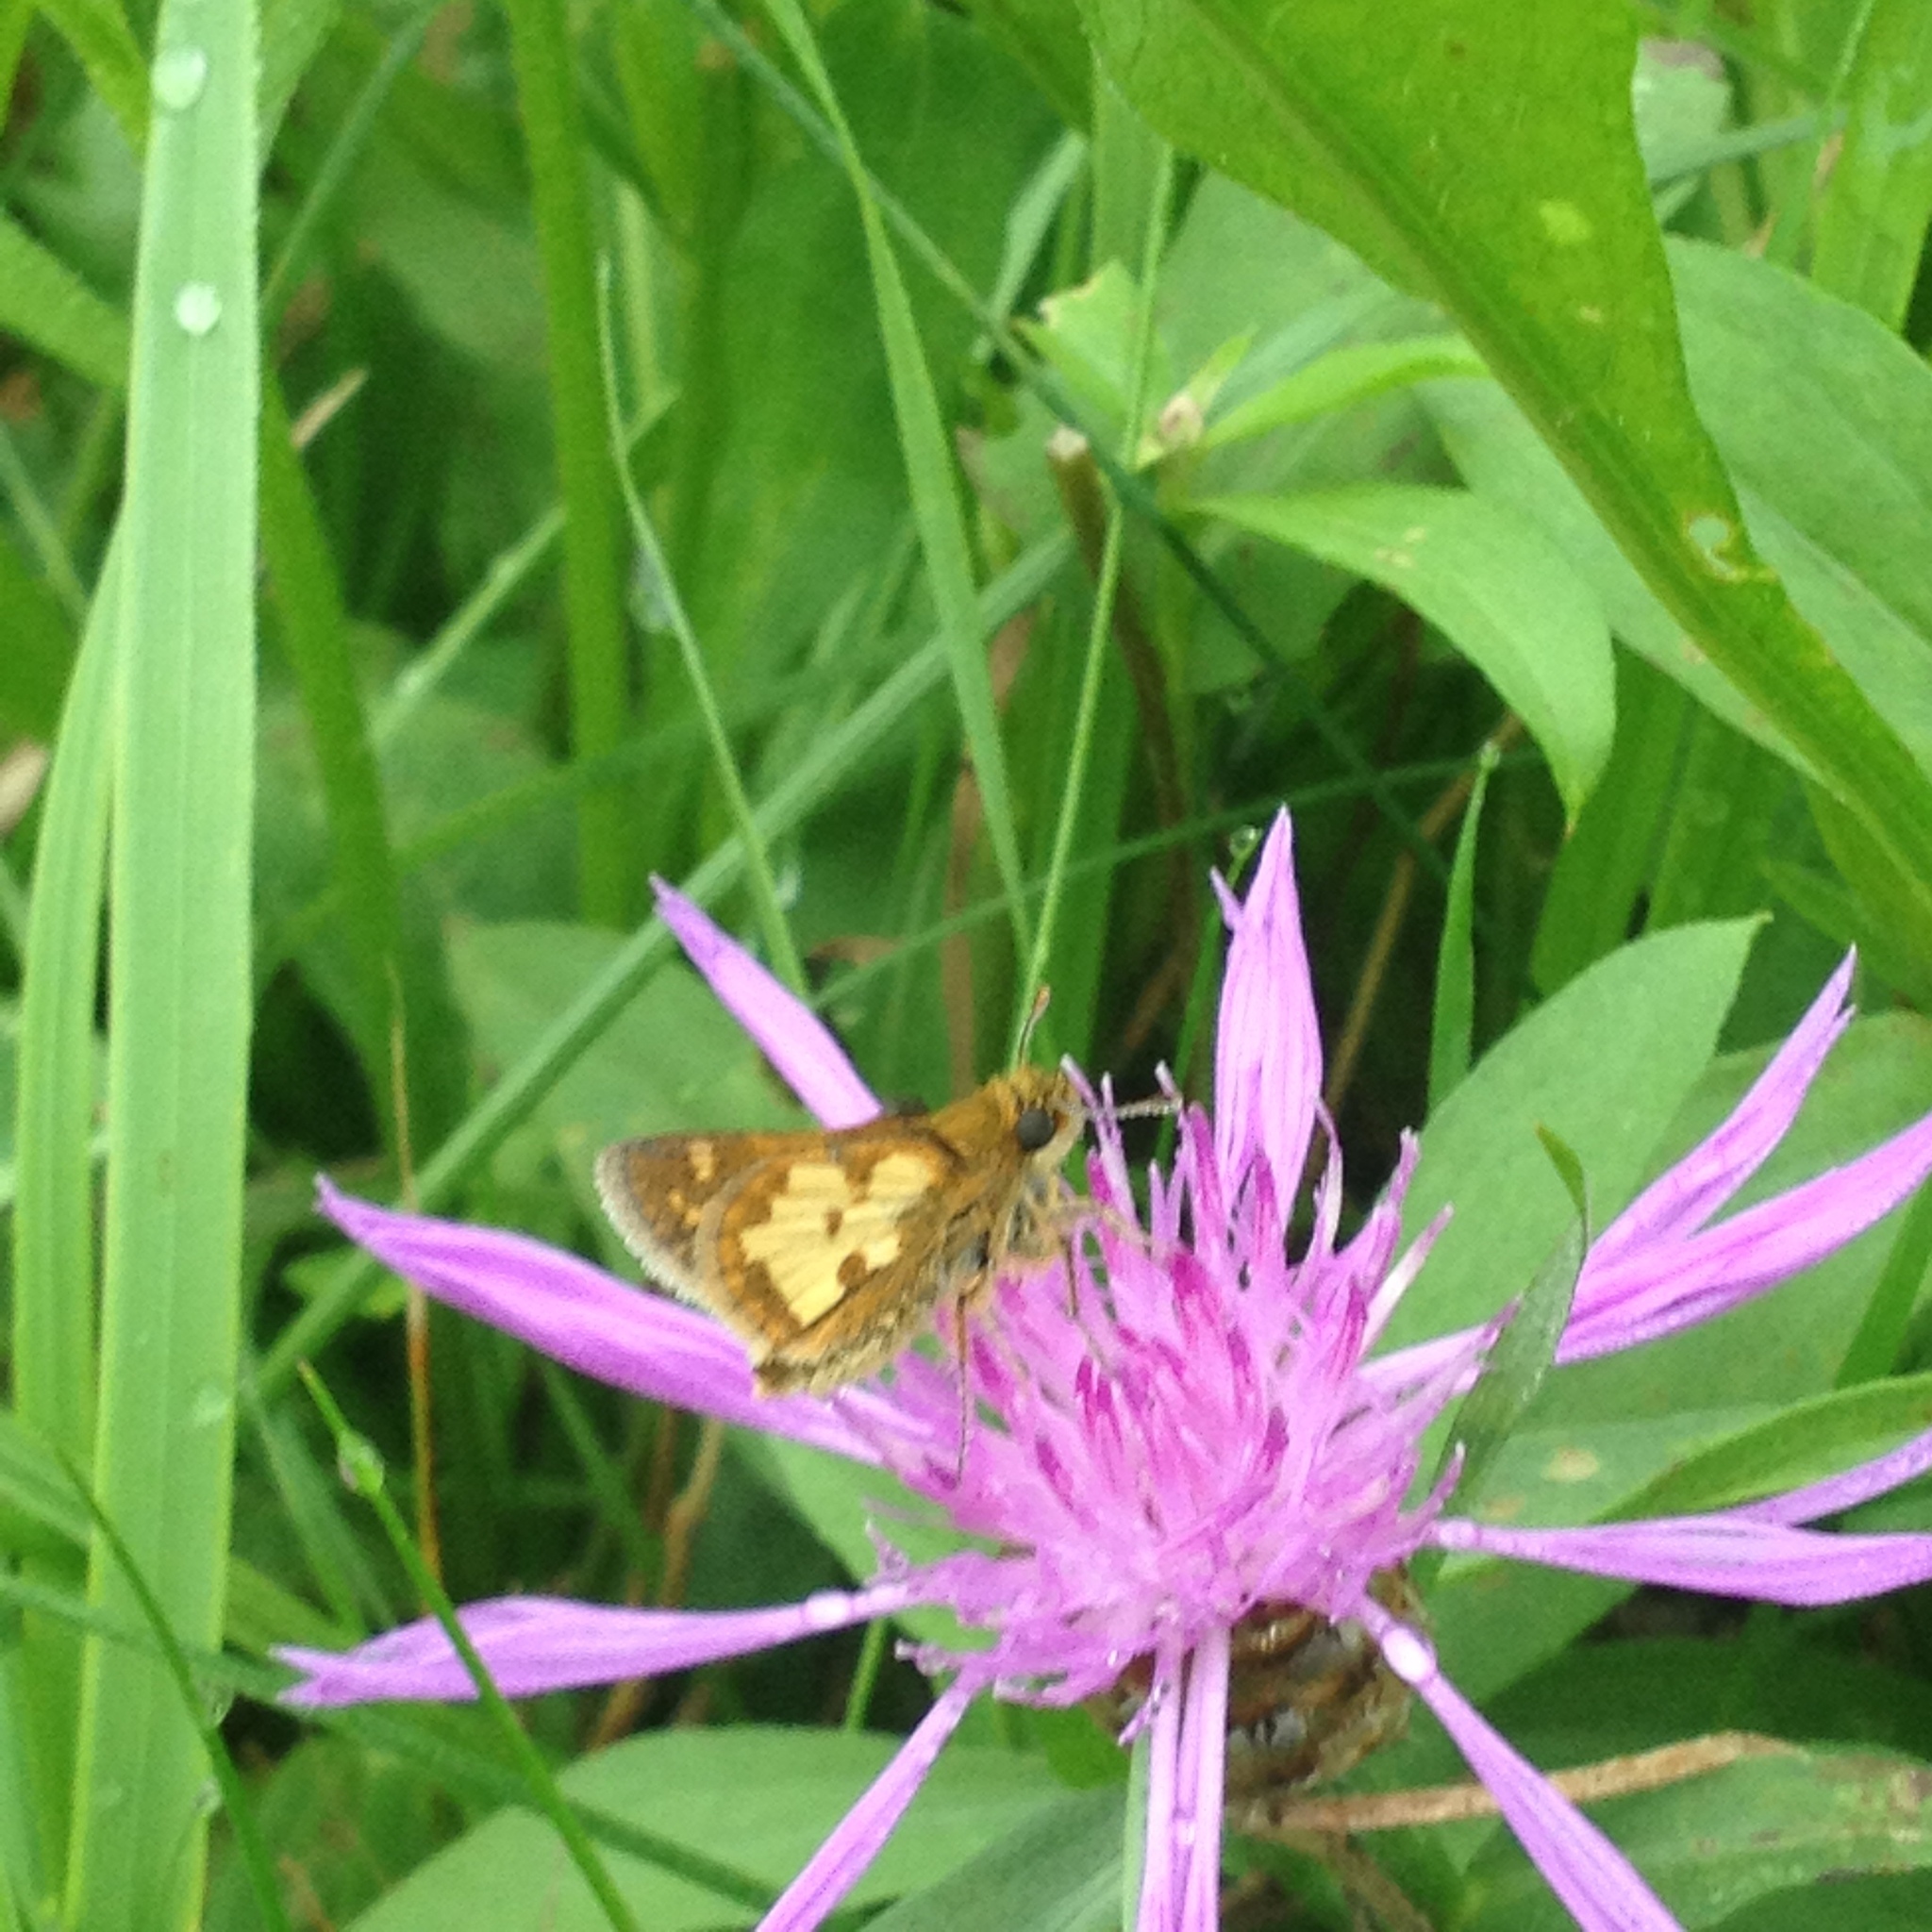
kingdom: Animalia
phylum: Arthropoda
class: Insecta
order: Lepidoptera
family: Hesperiidae
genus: Polites
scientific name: Polites coras
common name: Peck's skipper
